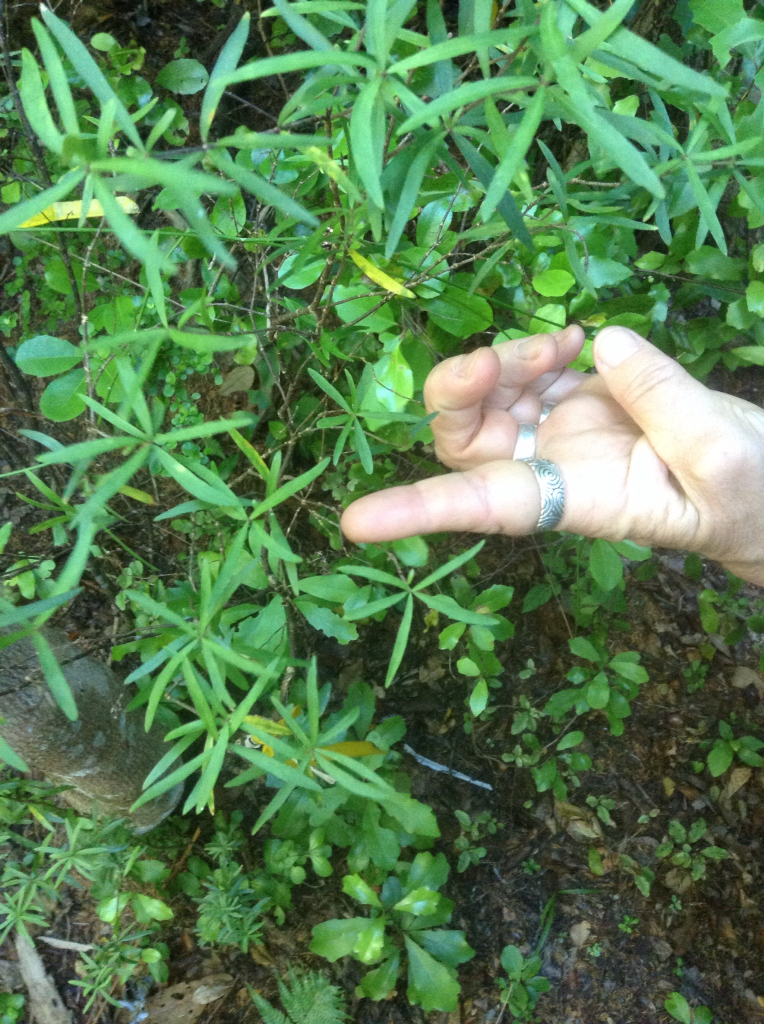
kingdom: Plantae
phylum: Tracheophyta
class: Magnoliopsida
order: Apiales
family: Pittosporaceae
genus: Pittosporum
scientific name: Pittosporum pimeleoides
